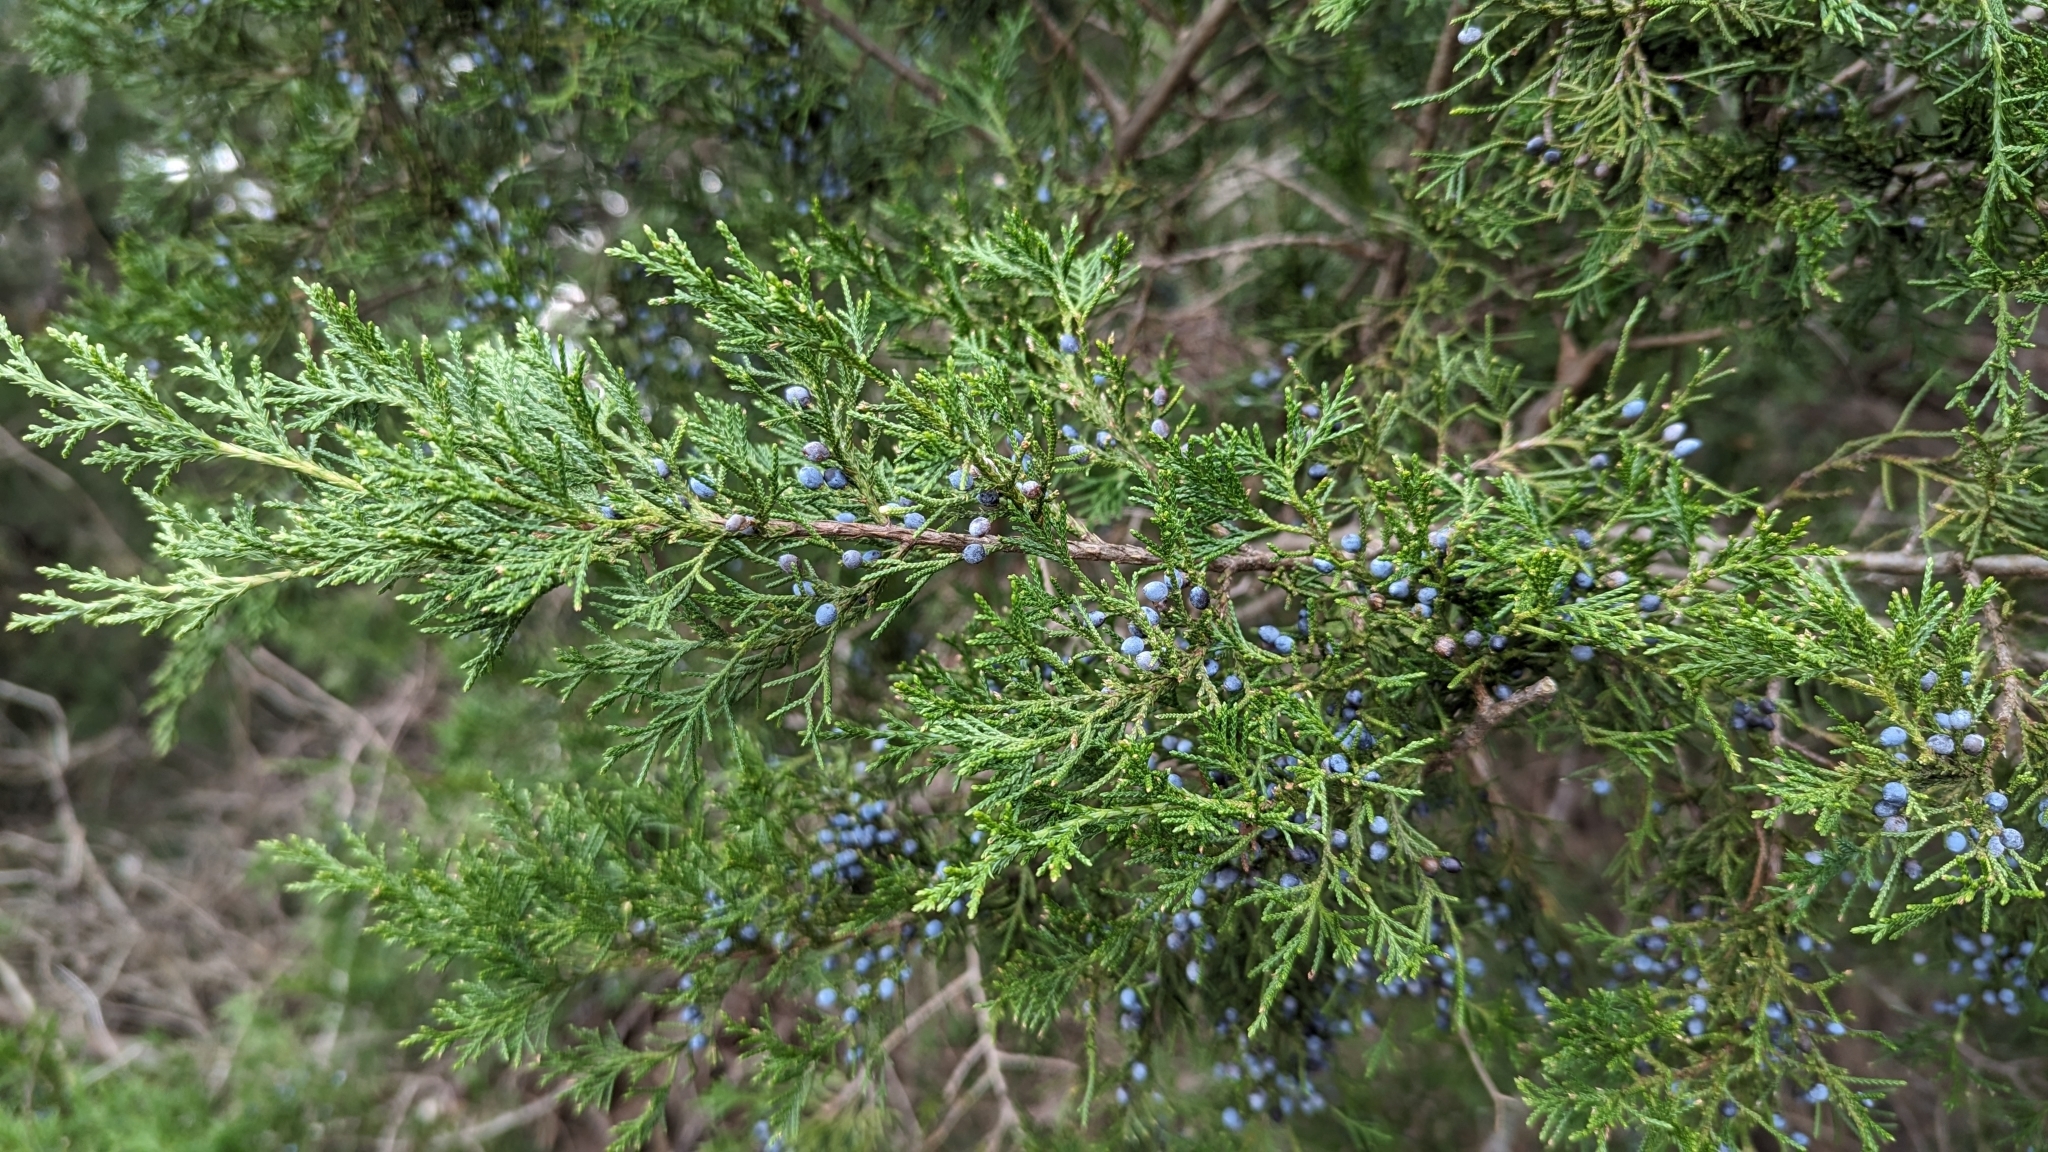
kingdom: Plantae
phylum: Tracheophyta
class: Pinopsida
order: Pinales
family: Cupressaceae
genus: Juniperus
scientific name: Juniperus virginiana
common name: Red juniper
